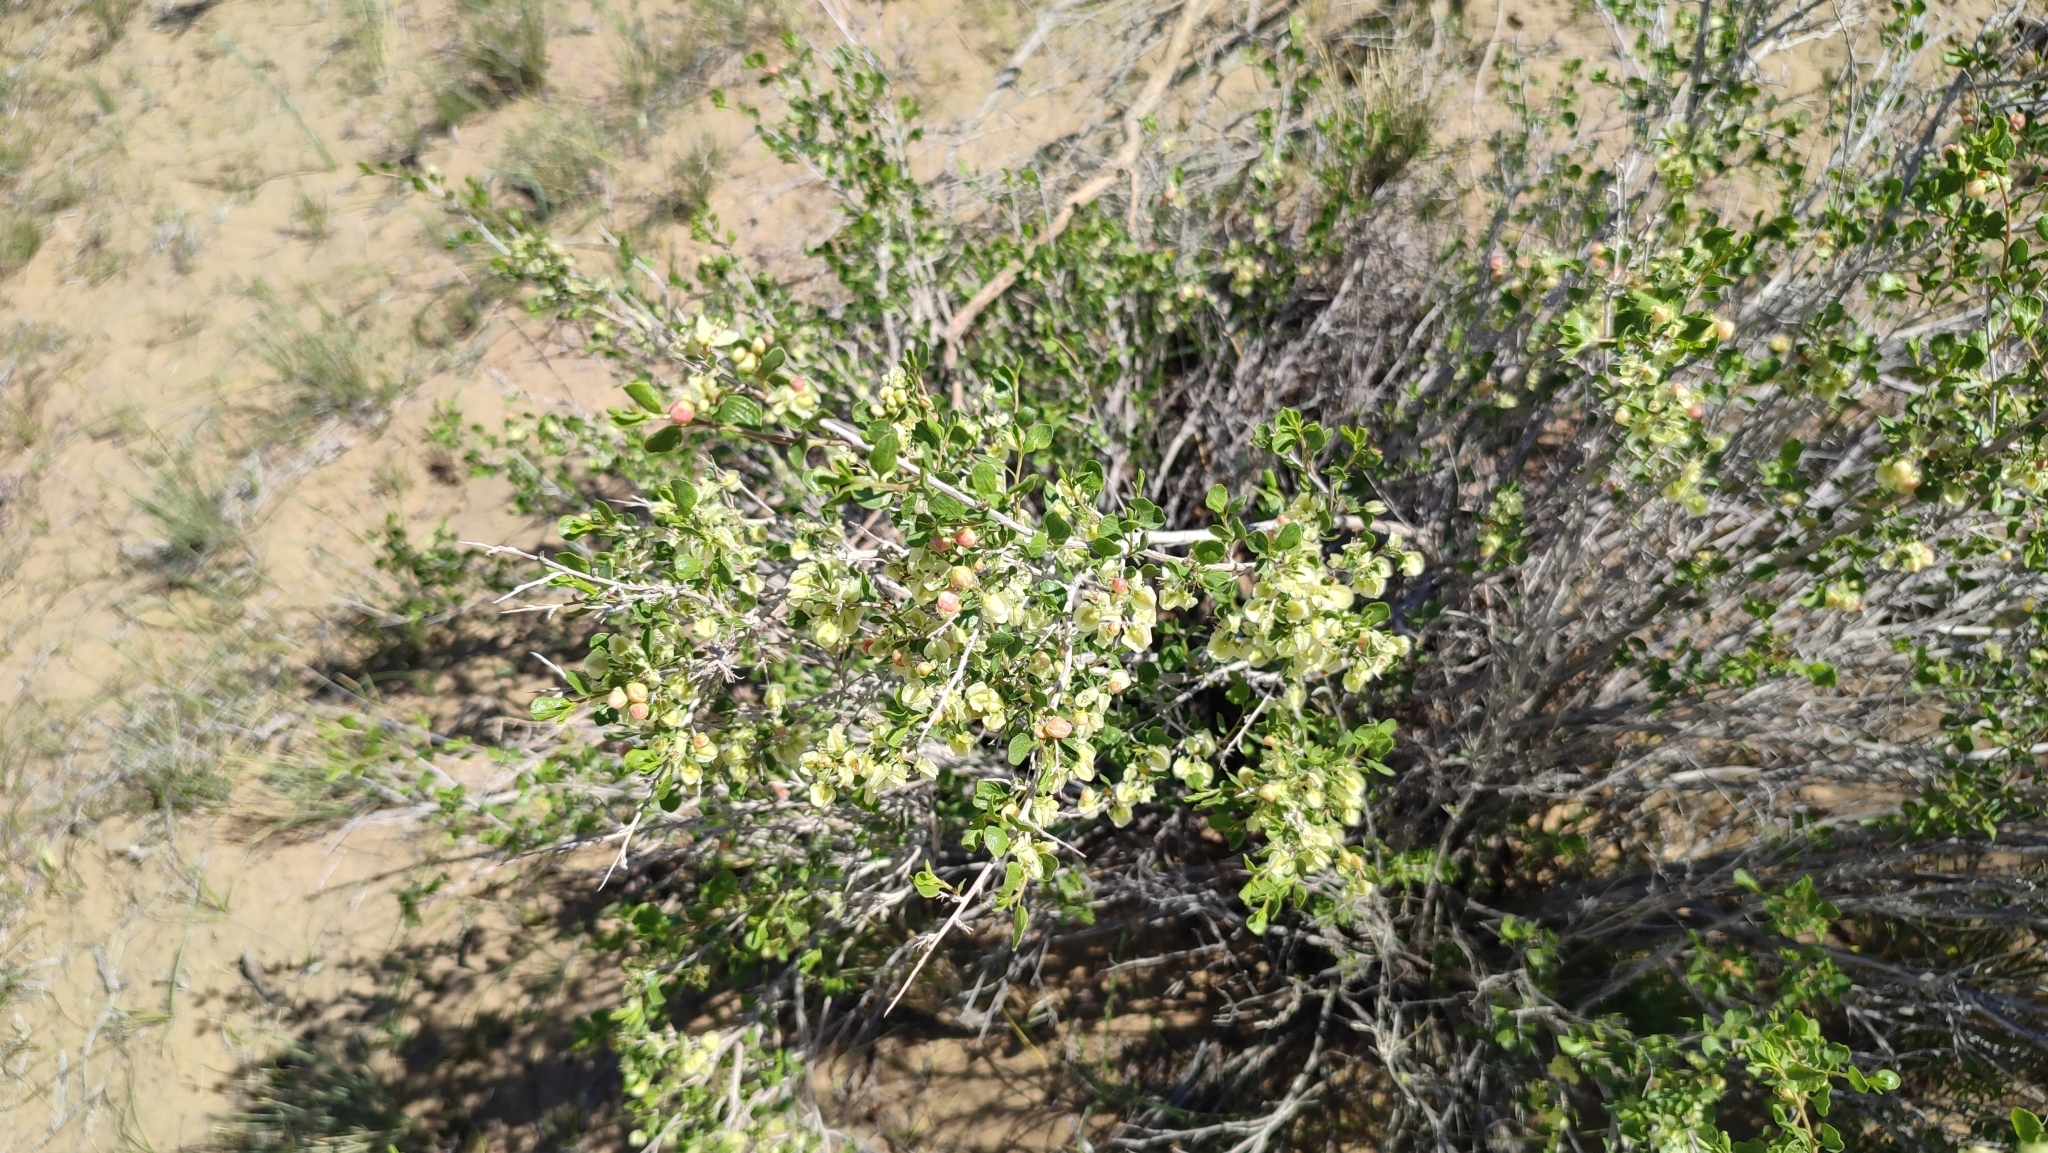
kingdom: Plantae
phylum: Tracheophyta
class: Magnoliopsida
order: Caryophyllales
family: Polygonaceae
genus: Atraphaxis
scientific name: Atraphaxis replicata
